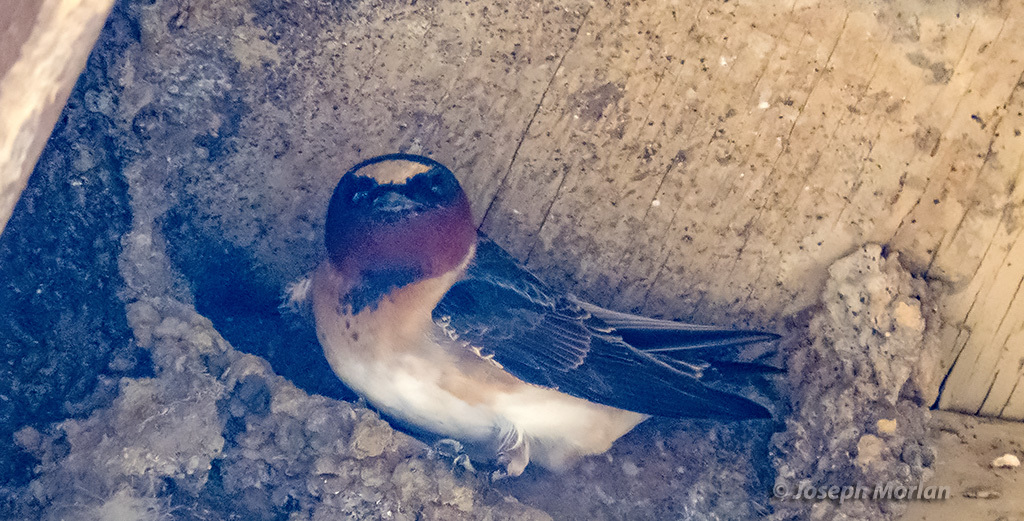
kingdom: Animalia
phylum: Chordata
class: Aves
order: Passeriformes
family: Hirundinidae
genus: Petrochelidon
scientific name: Petrochelidon pyrrhonota
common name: American cliff swallow
